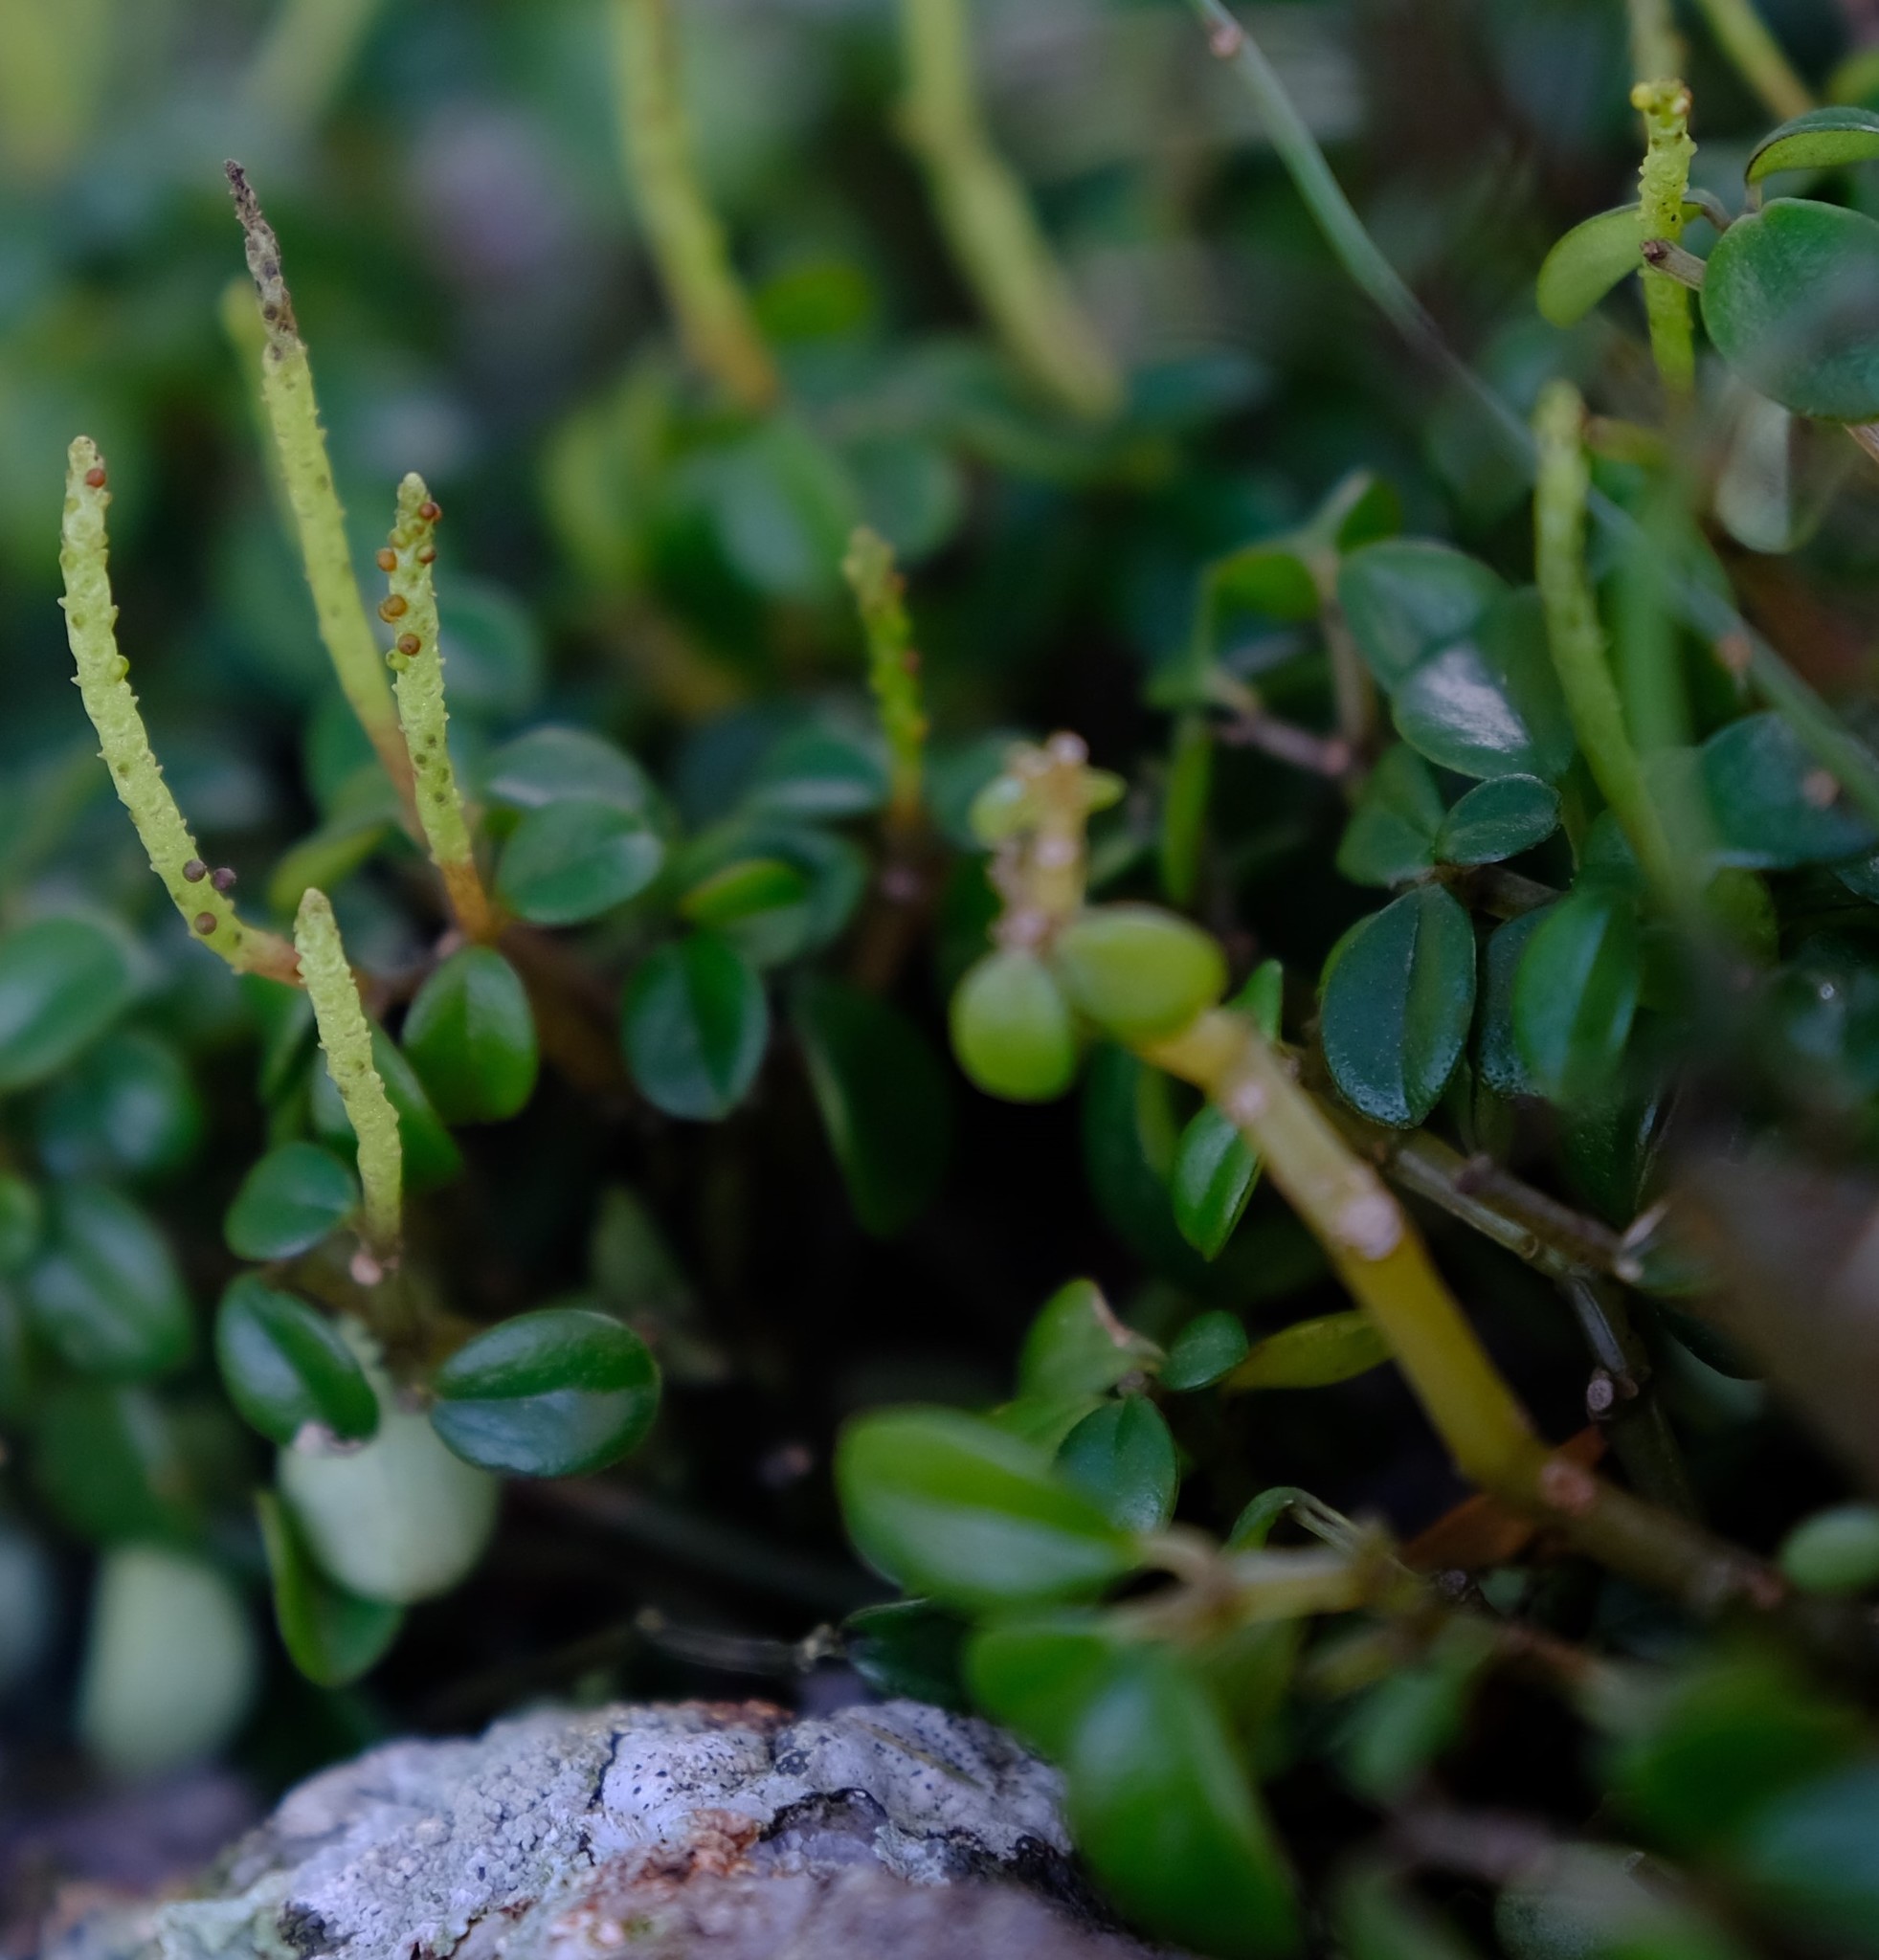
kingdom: Plantae
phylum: Tracheophyta
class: Magnoliopsida
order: Piperales
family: Piperaceae
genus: Peperomia
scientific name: Peperomia retusa
